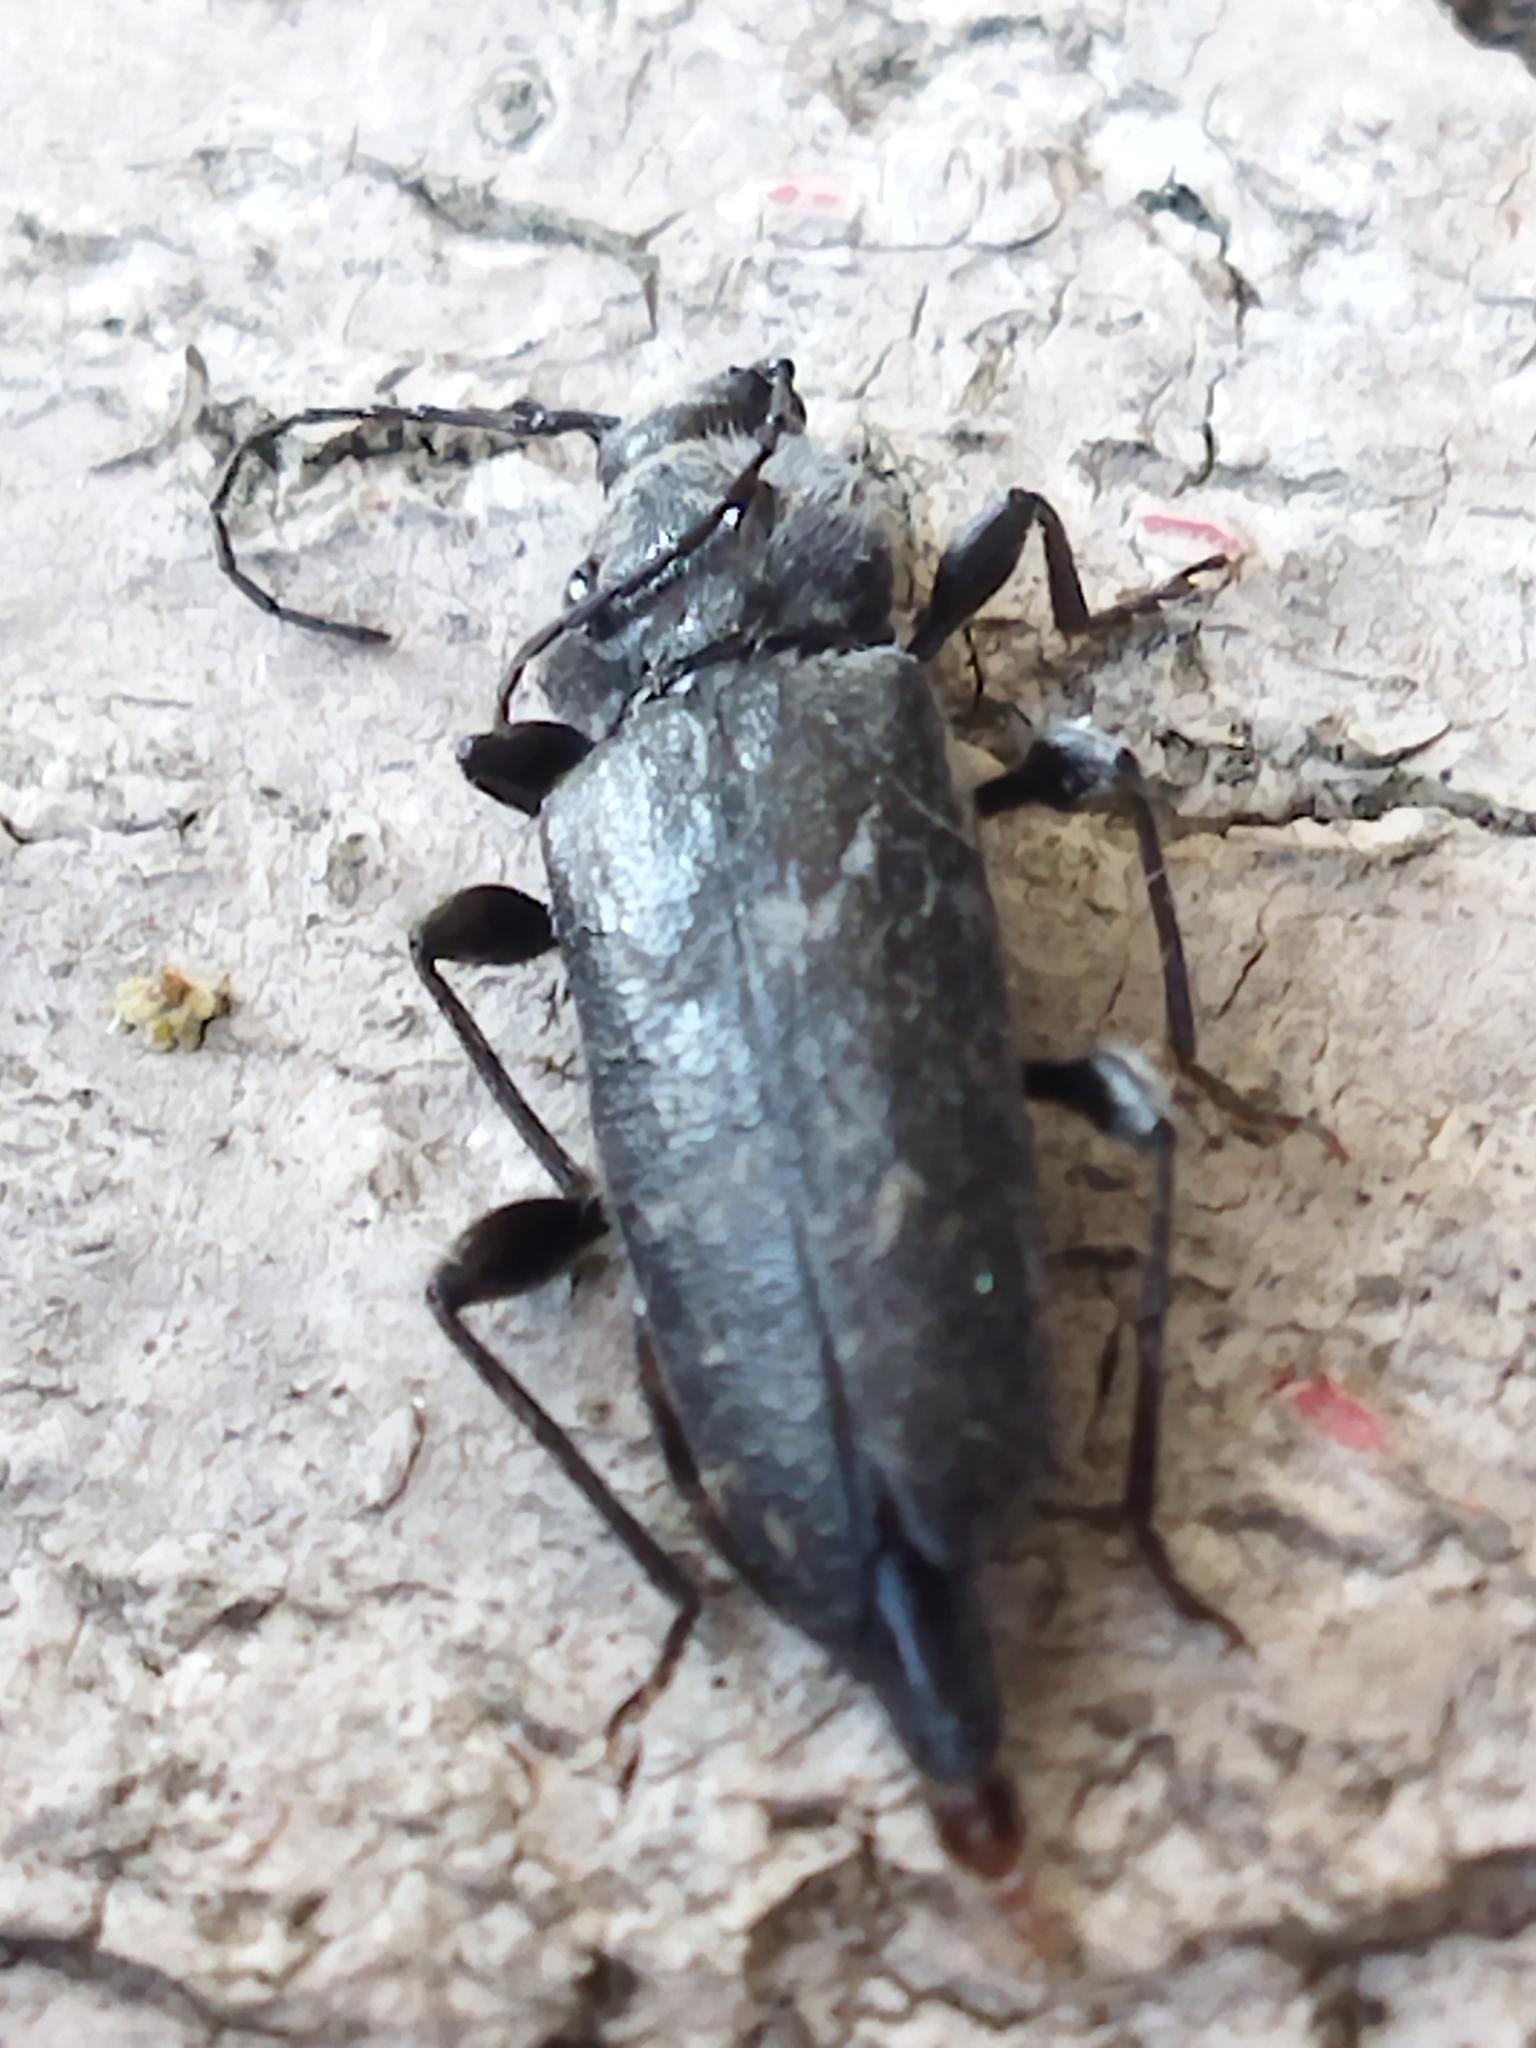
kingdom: Animalia
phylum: Arthropoda
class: Insecta
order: Coleoptera
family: Cerambycidae
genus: Hylotrupes
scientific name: Hylotrupes bajulus
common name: Old house borer
